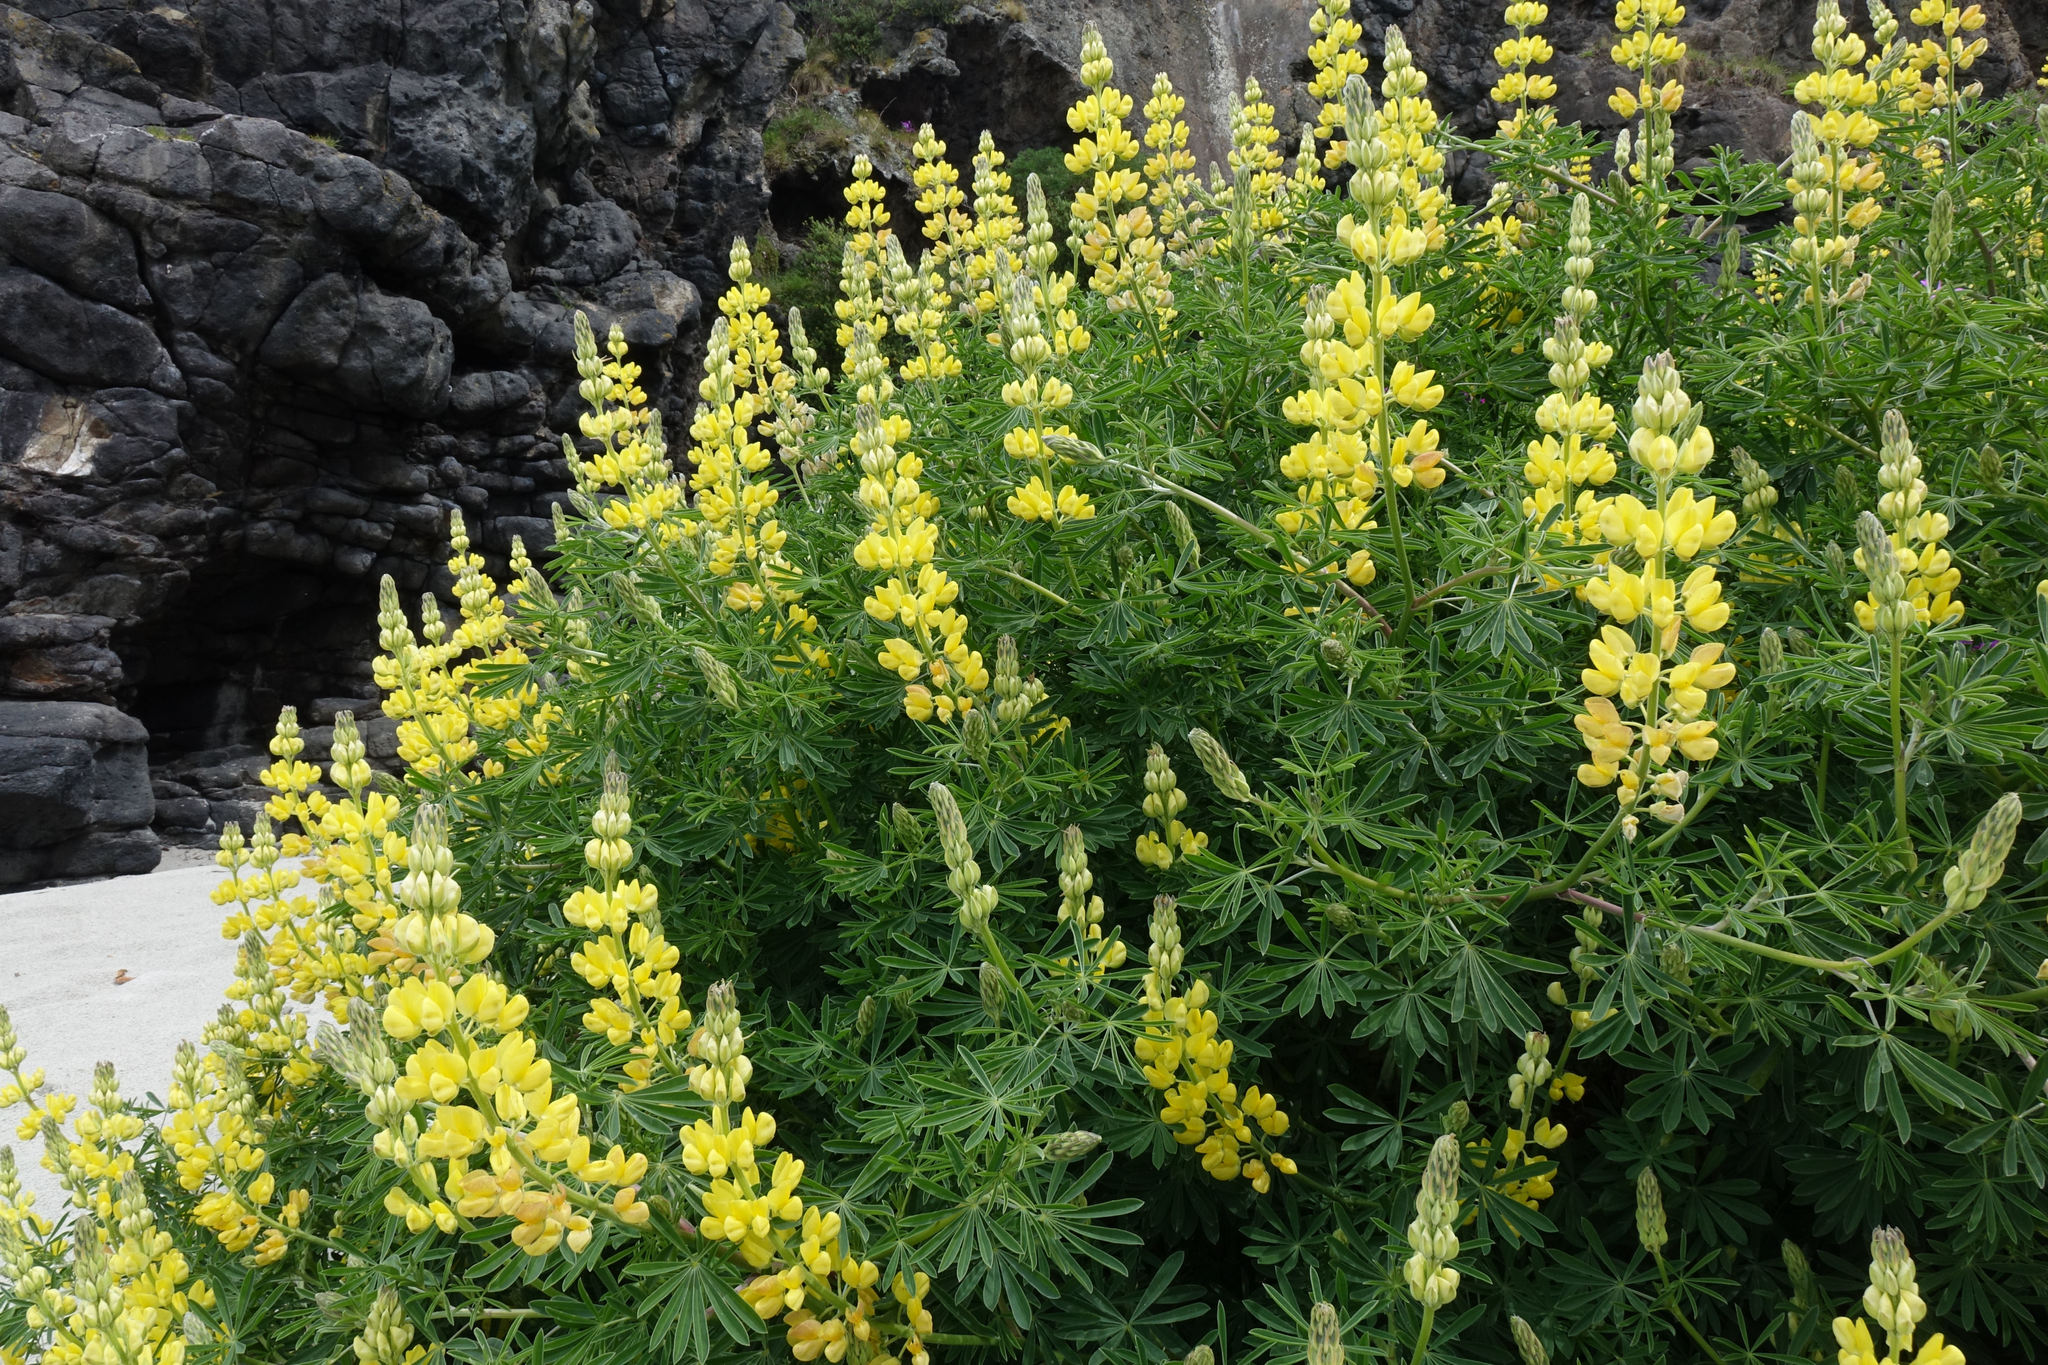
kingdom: Plantae
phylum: Tracheophyta
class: Magnoliopsida
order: Fabales
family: Fabaceae
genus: Lupinus
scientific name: Lupinus arboreus
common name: Yellow bush lupine
